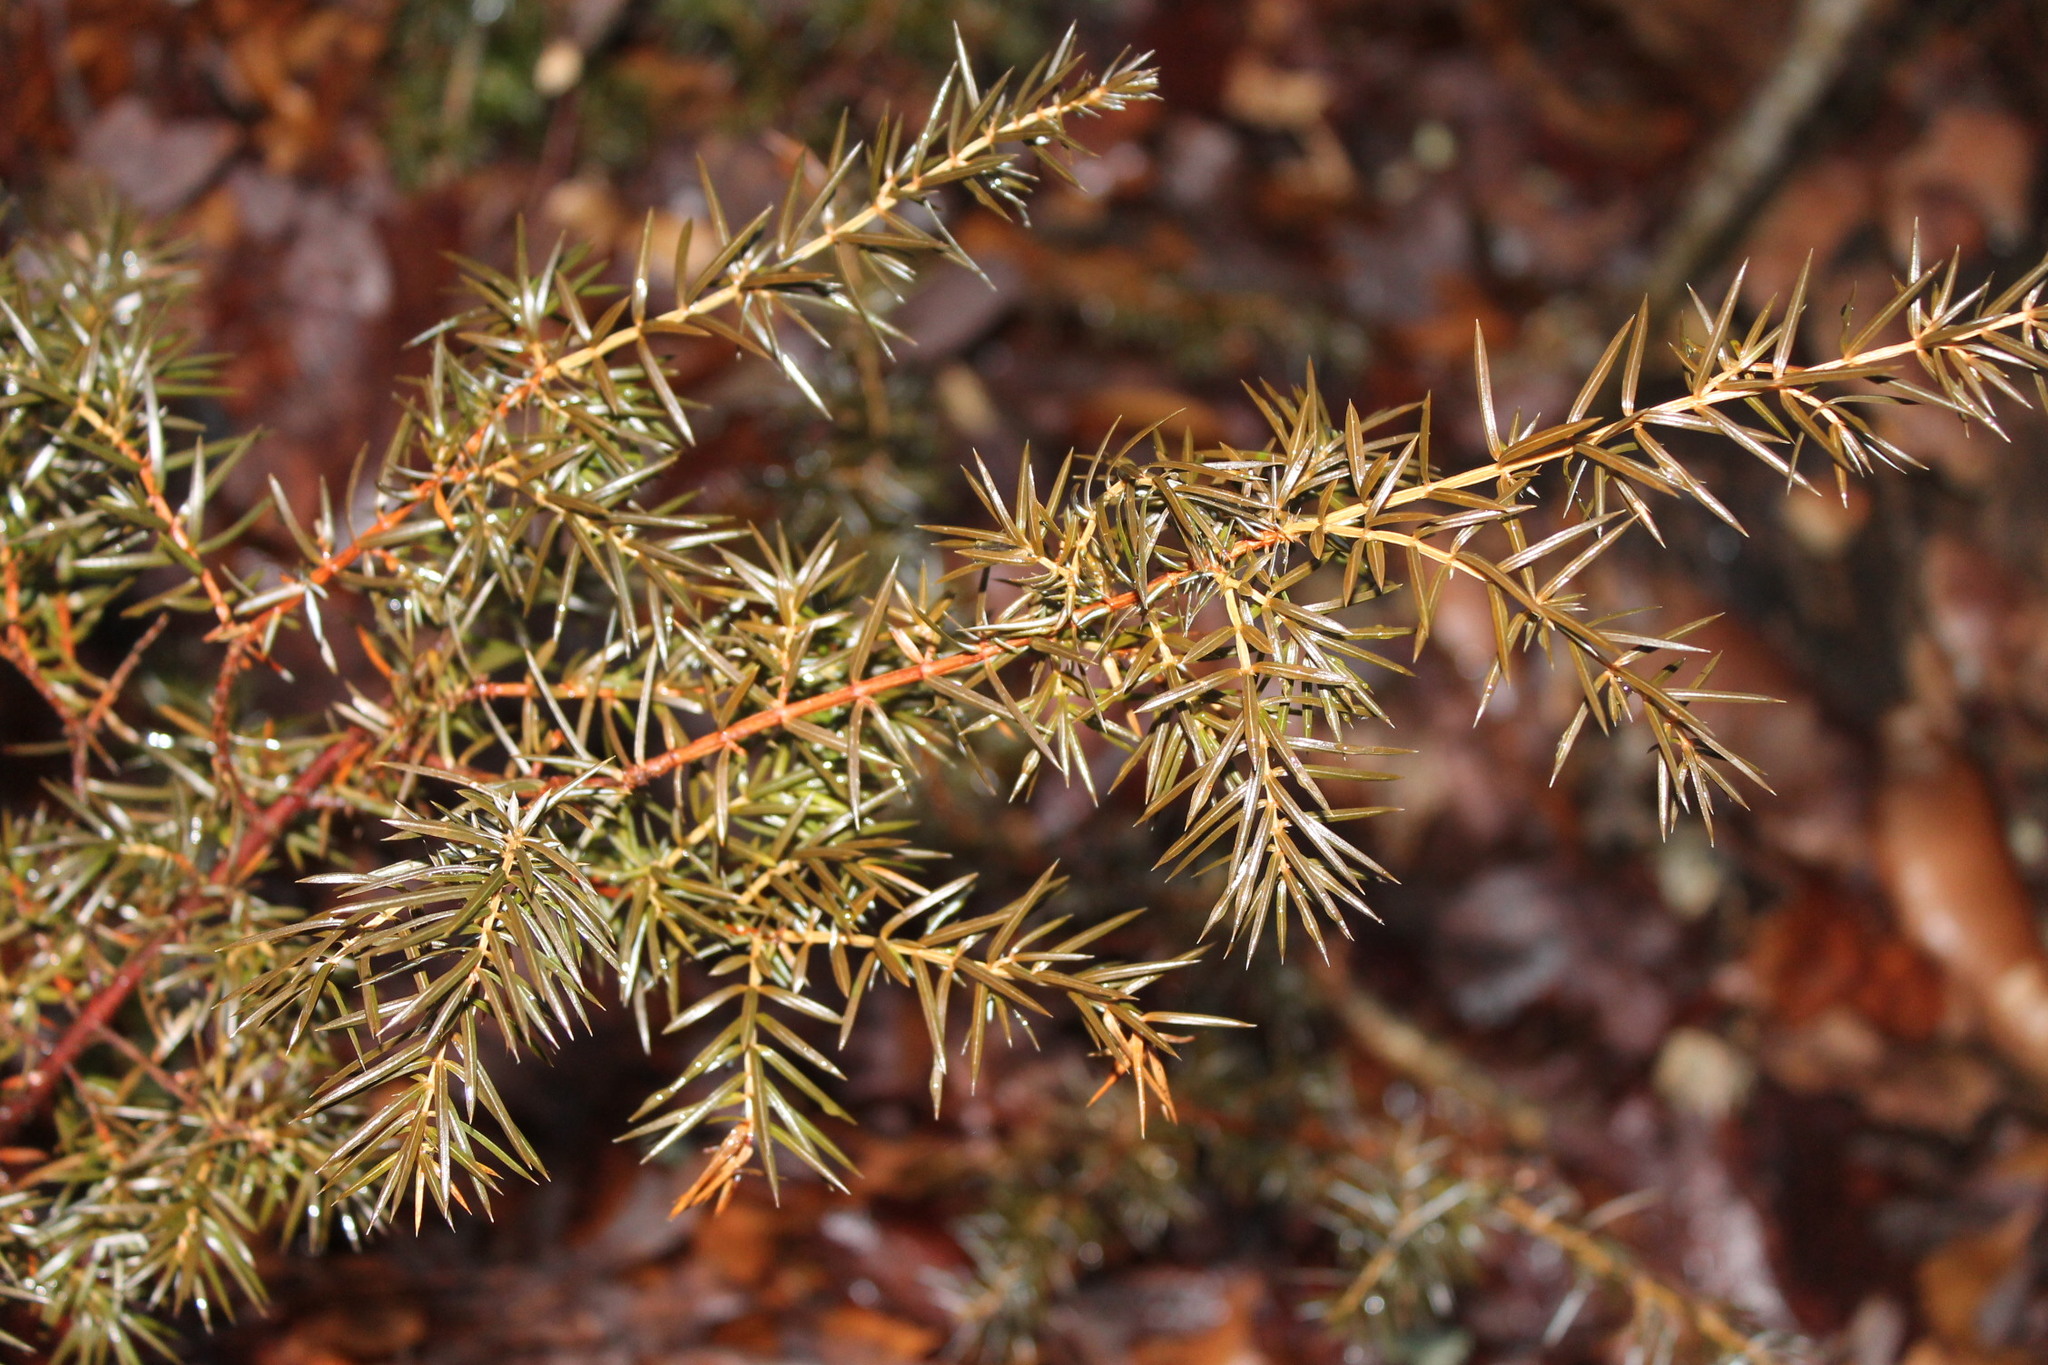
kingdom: Plantae
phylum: Tracheophyta
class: Pinopsida
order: Pinales
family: Cupressaceae
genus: Juniperus
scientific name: Juniperus communis
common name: Common juniper
